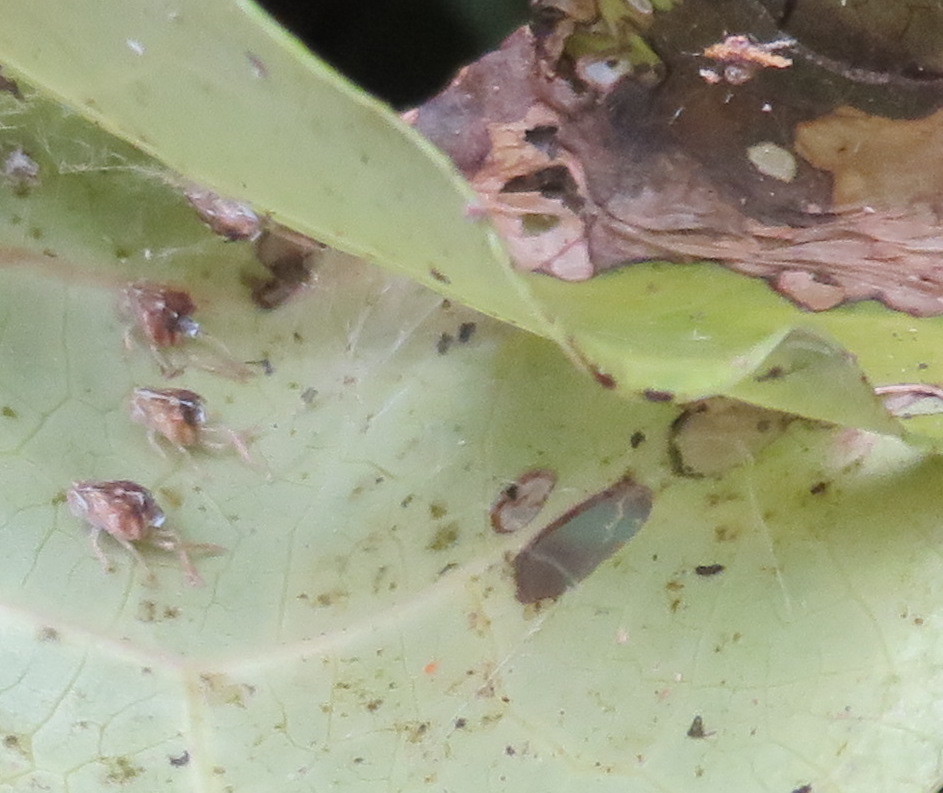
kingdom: Plantae
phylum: Tracheophyta
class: Magnoliopsida
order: Piperales
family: Piperaceae
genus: Macropiper
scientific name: Macropiper excelsum
